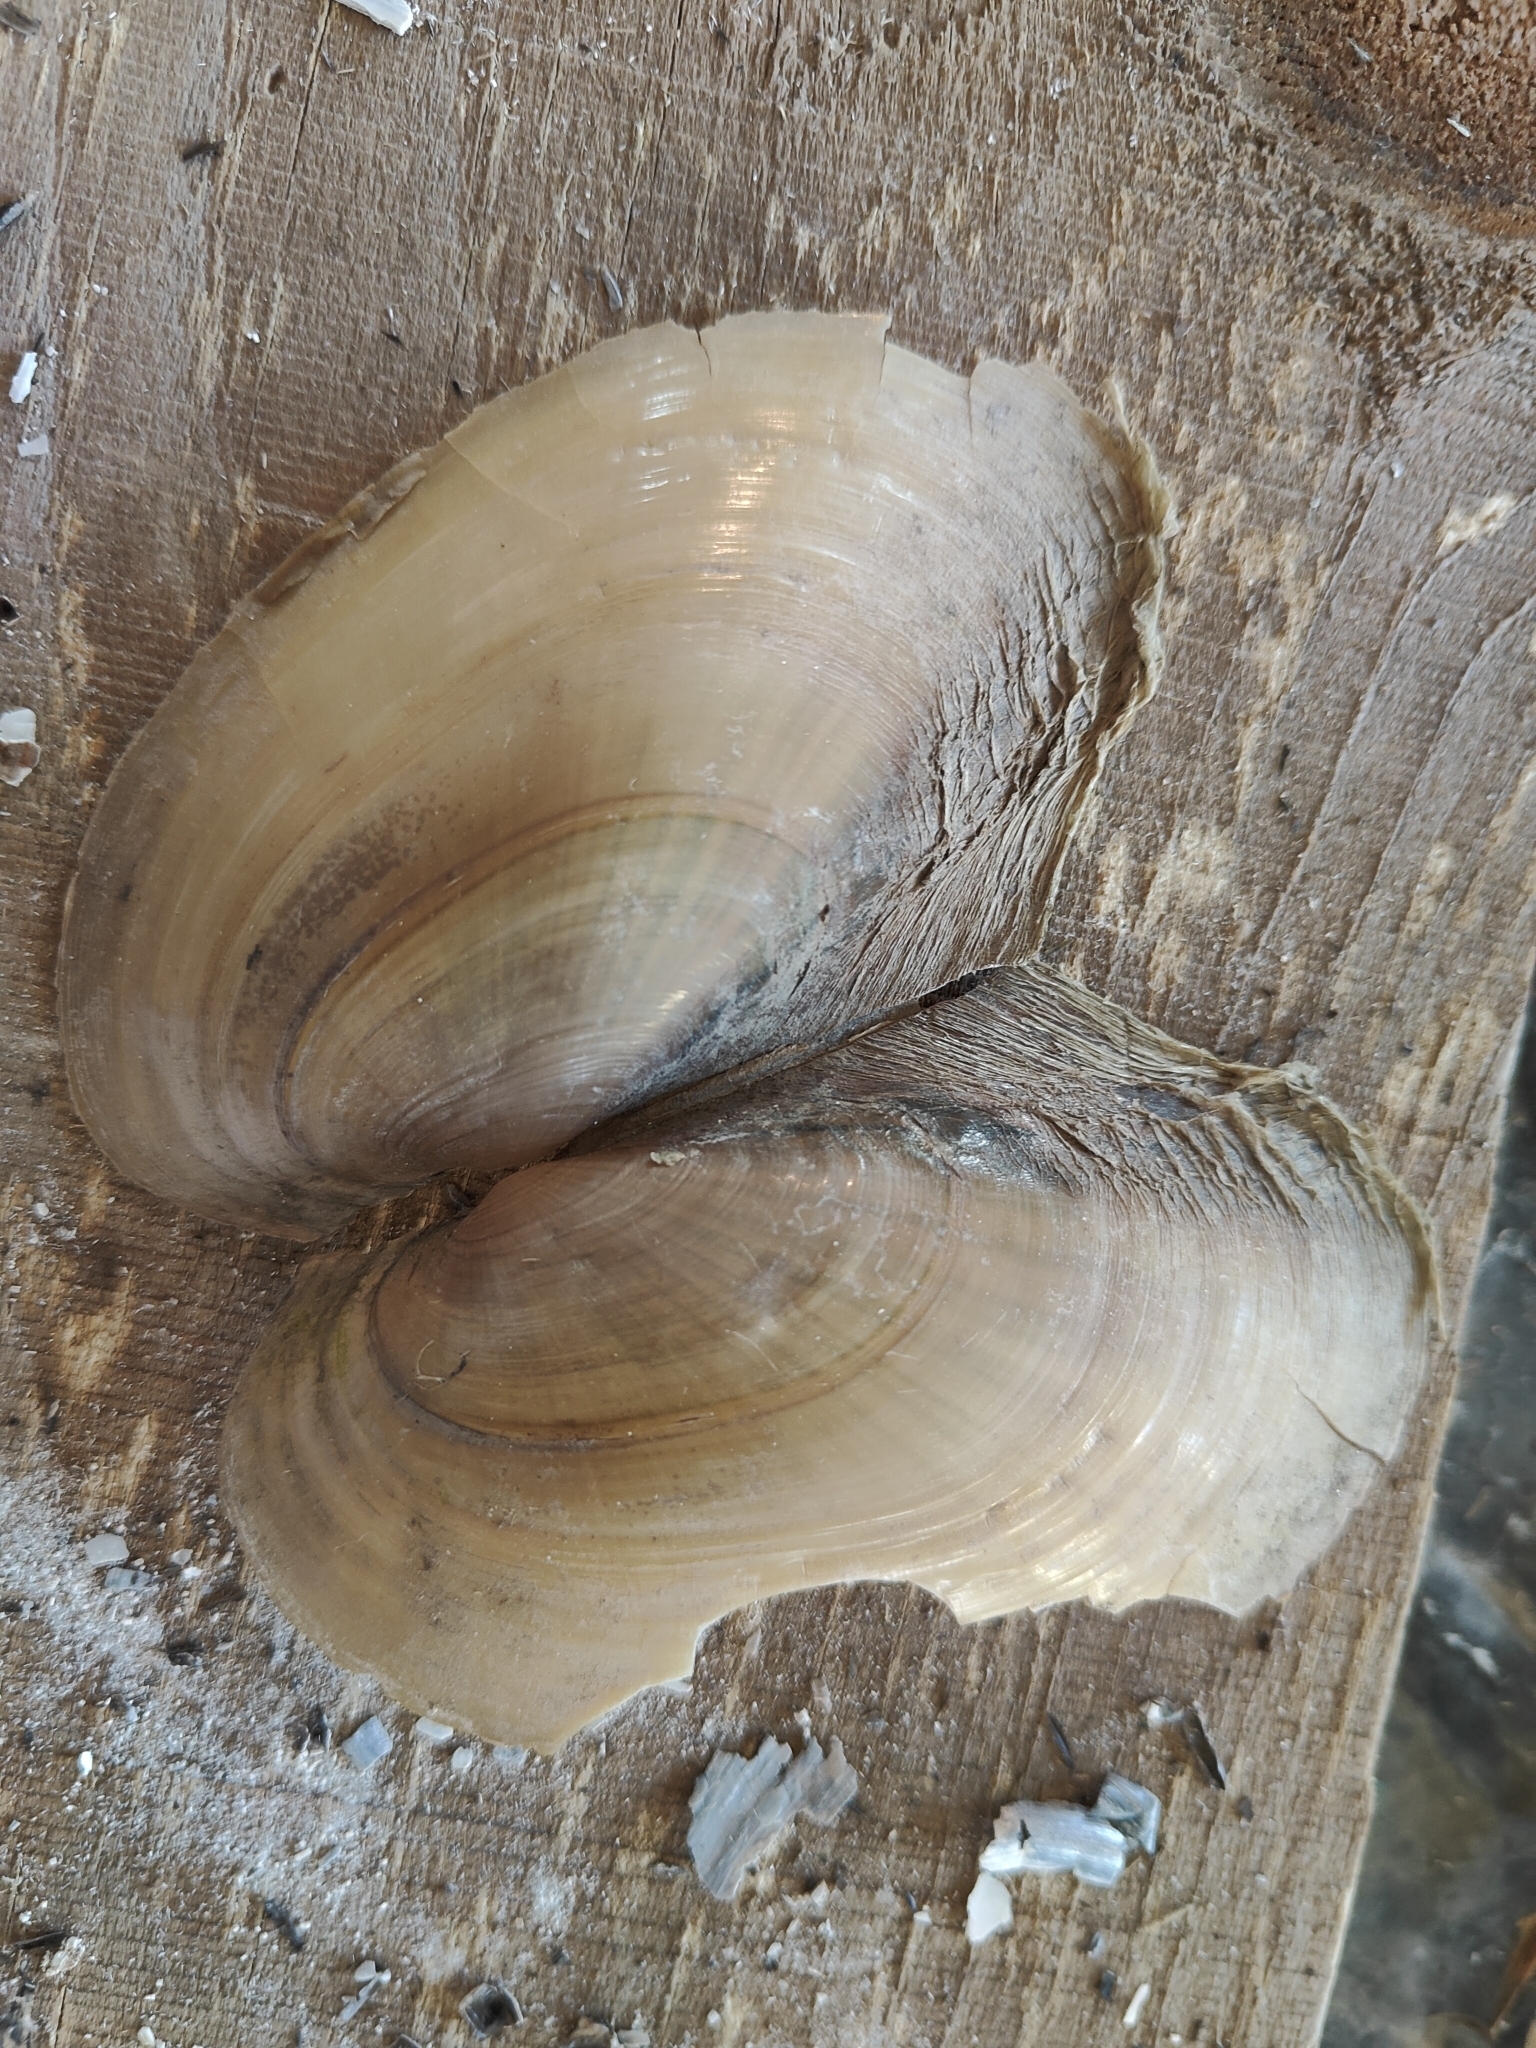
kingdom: Animalia
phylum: Mollusca
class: Bivalvia
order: Unionida
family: Unionidae
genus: Potamilus
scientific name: Potamilus fragilis
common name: Fragile papershell
